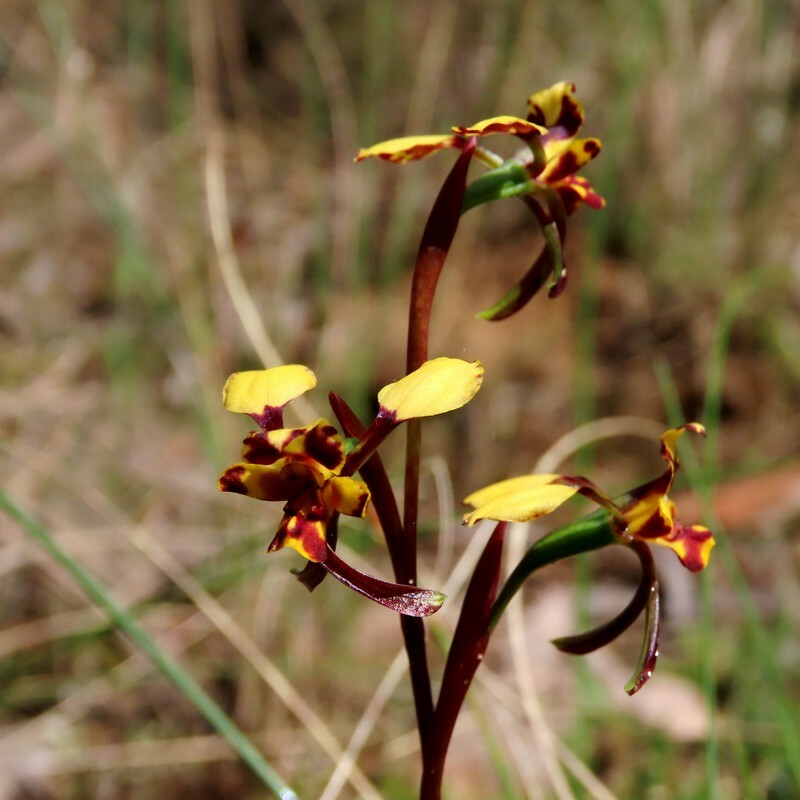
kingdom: Plantae
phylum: Tracheophyta
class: Liliopsida
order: Asparagales
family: Orchidaceae
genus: Diuris
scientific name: Diuris pardina
